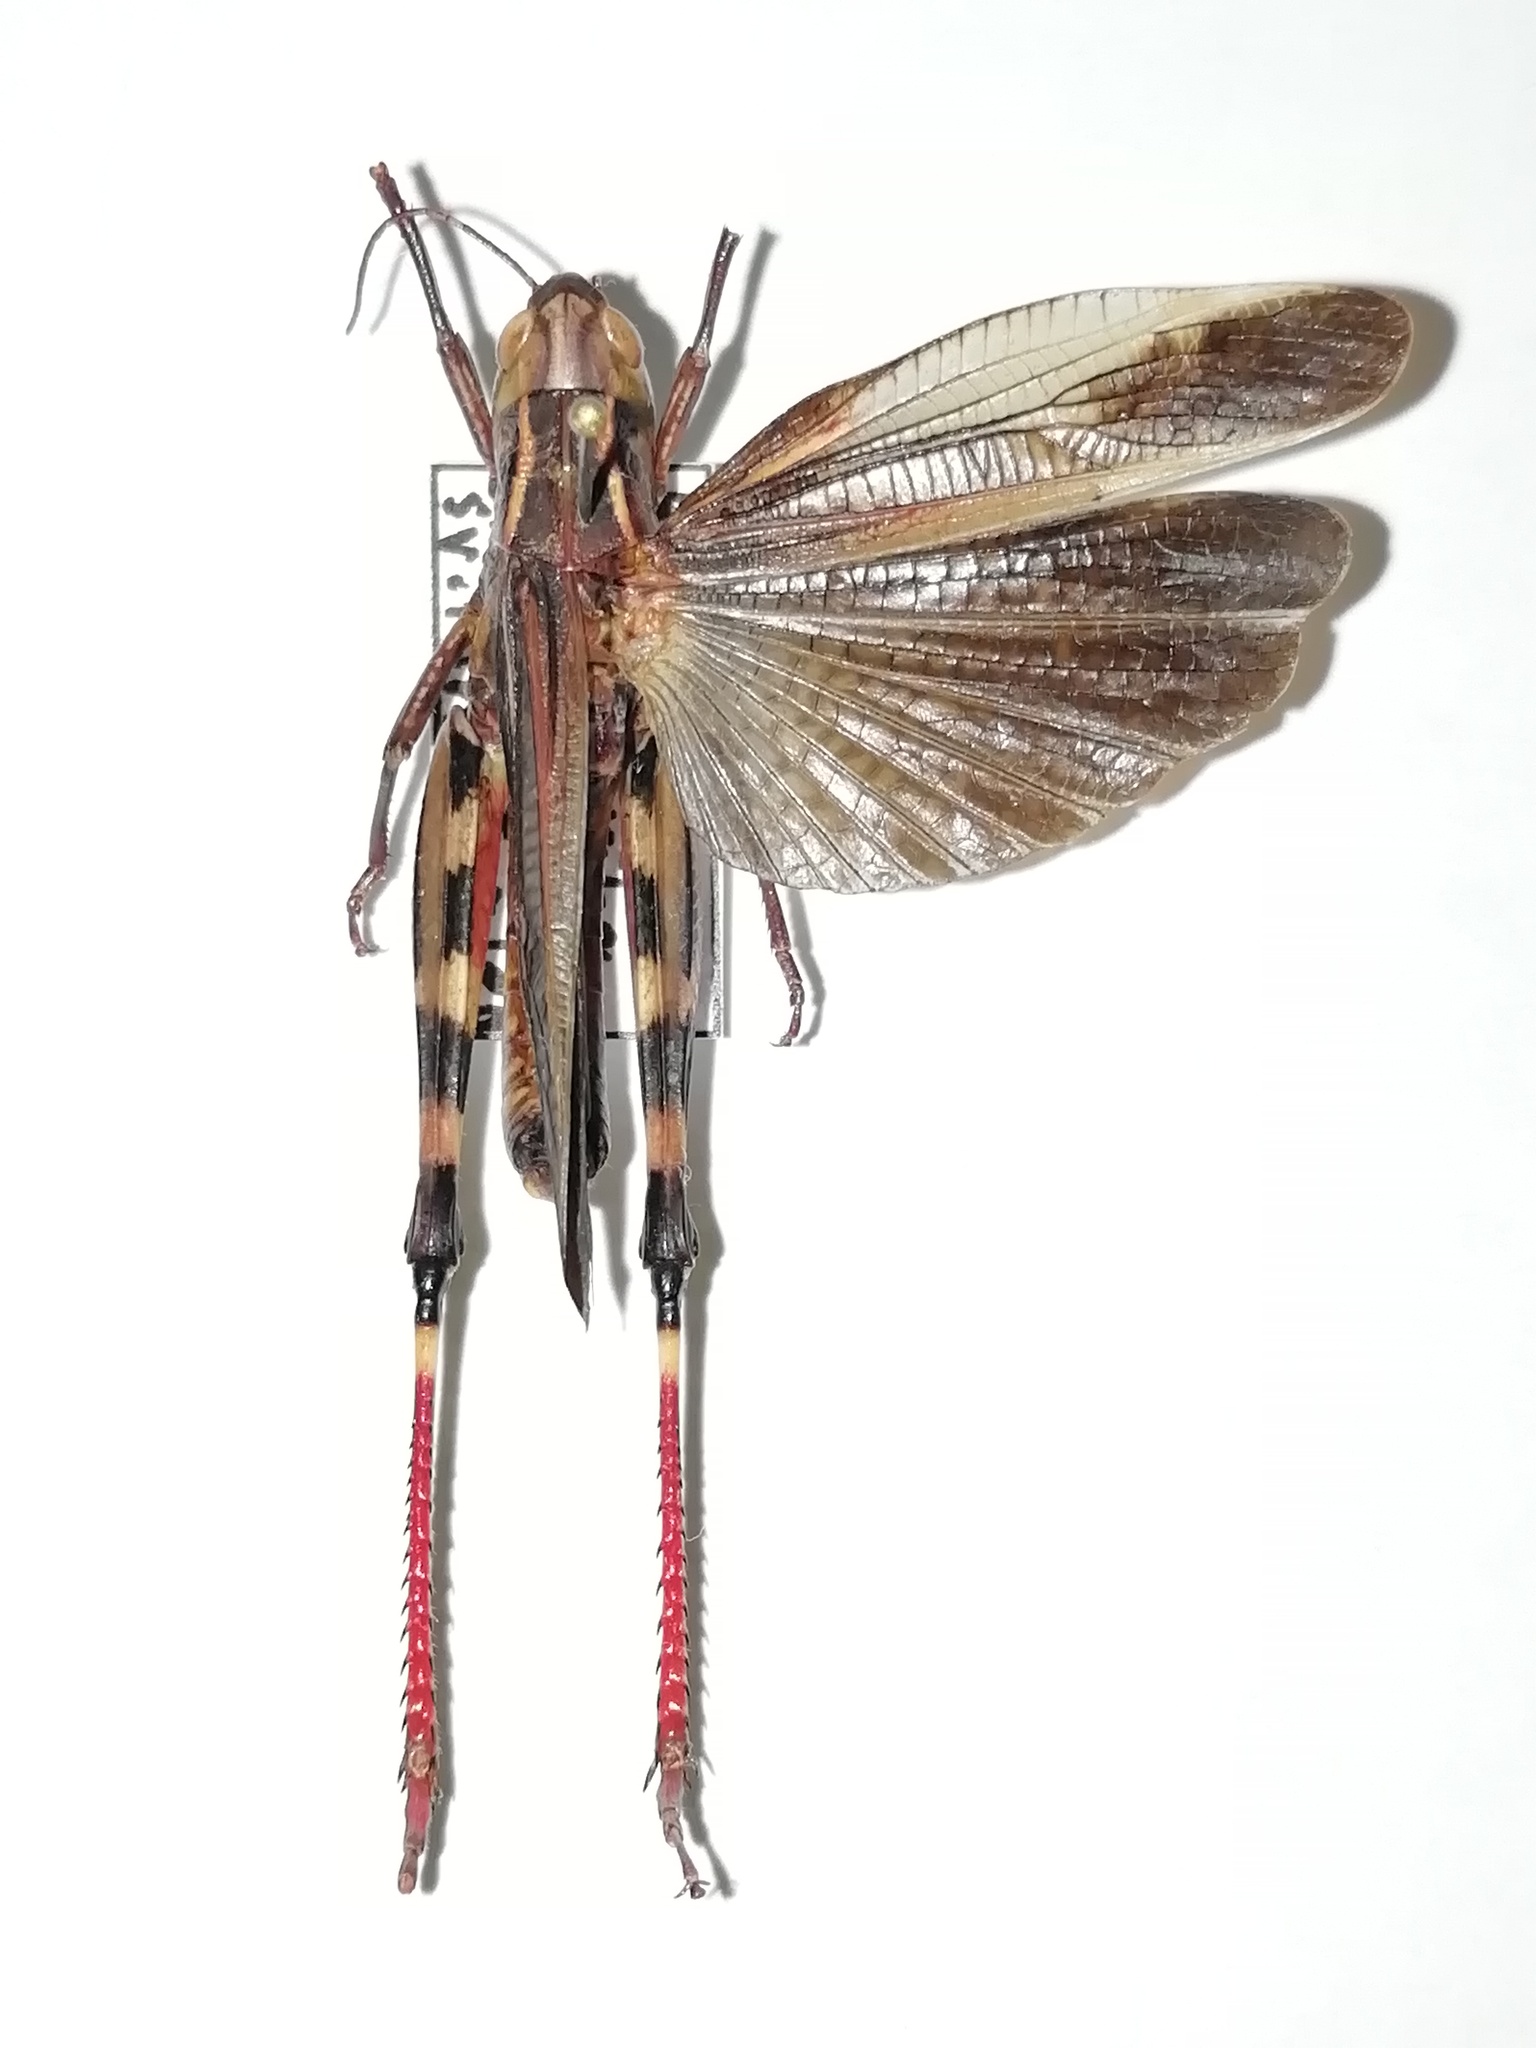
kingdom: Animalia
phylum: Arthropoda
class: Insecta
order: Orthoptera
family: Acrididae
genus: Arcyptera
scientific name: Arcyptera fusca
